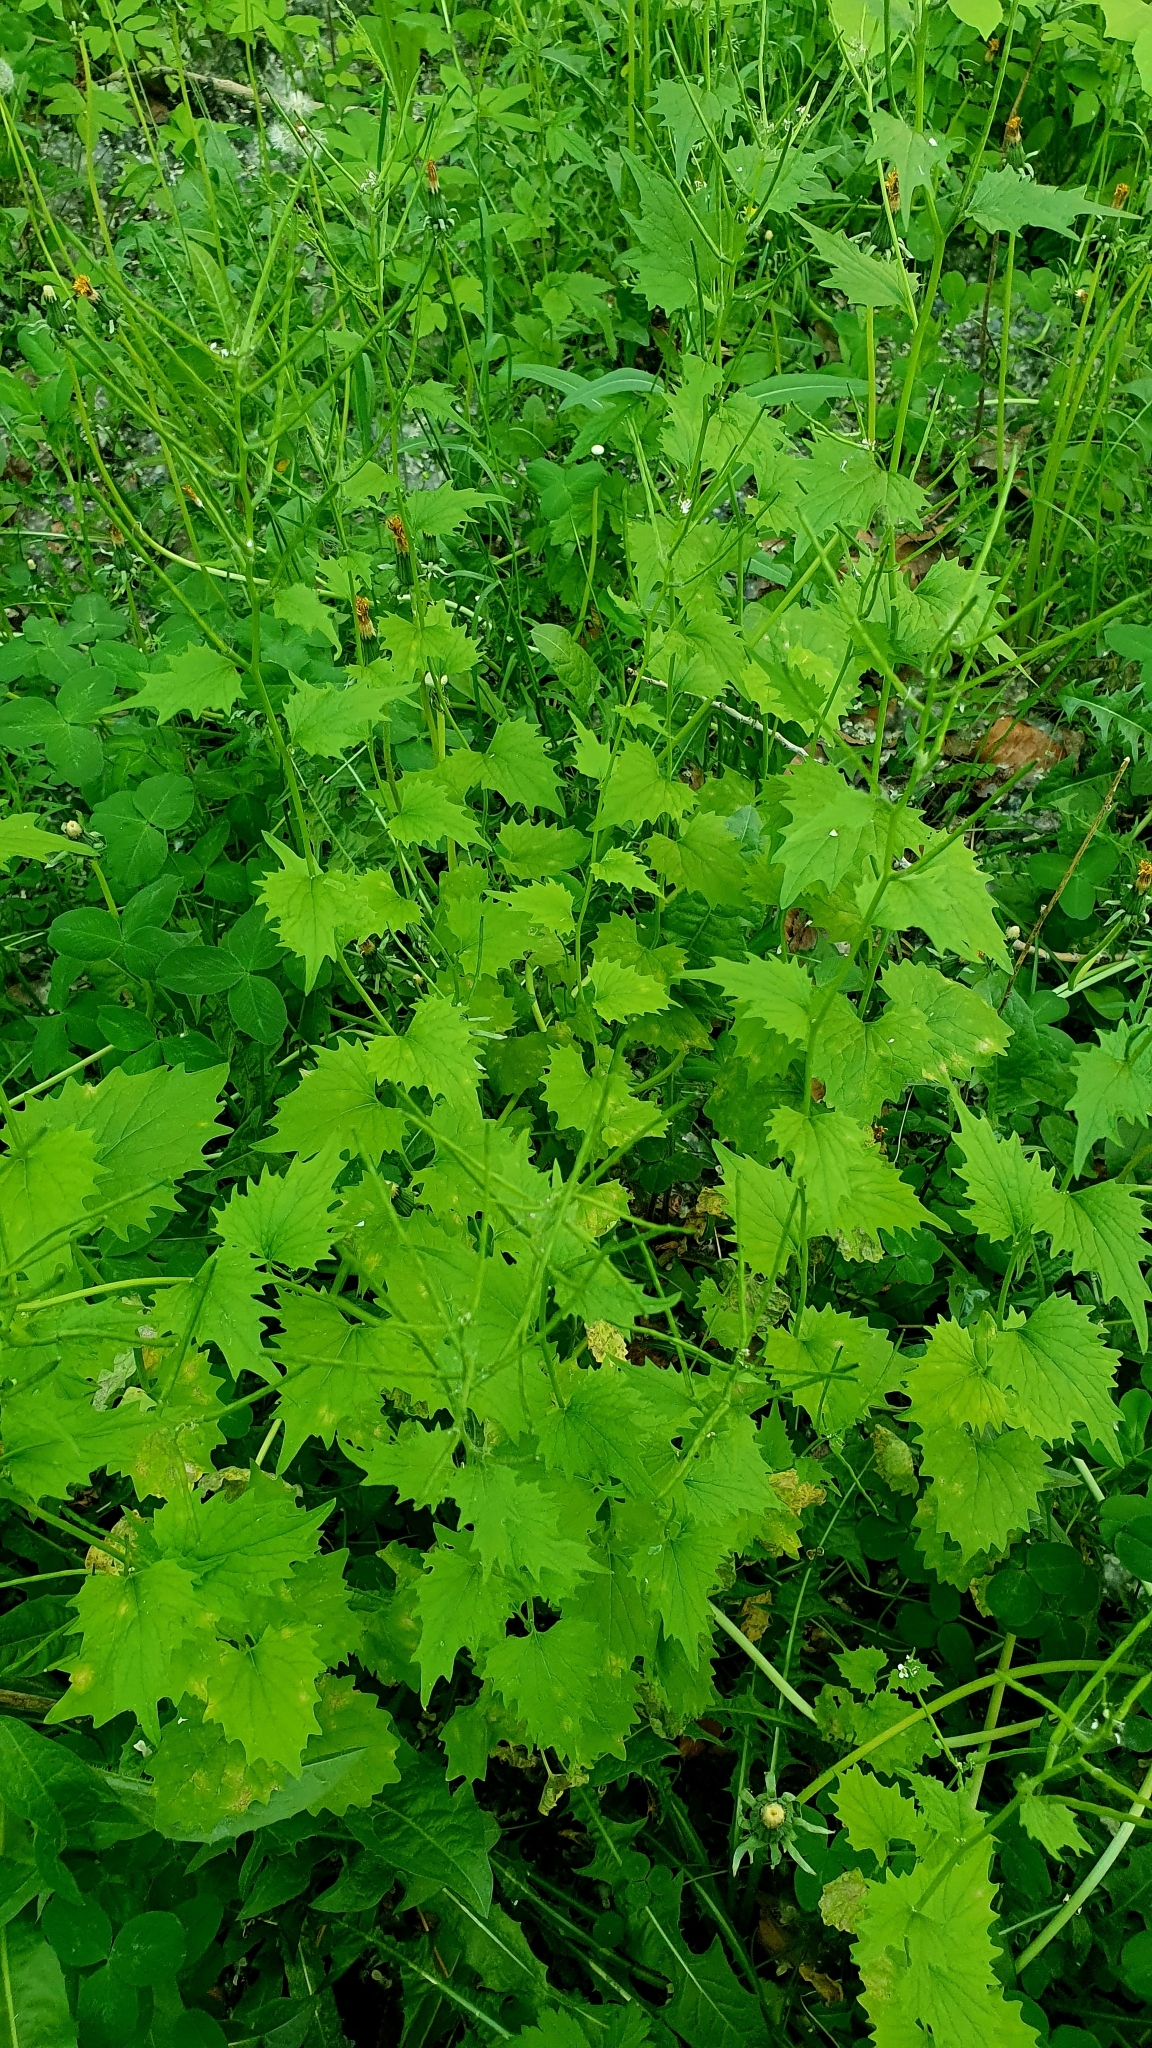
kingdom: Plantae
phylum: Tracheophyta
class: Magnoliopsida
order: Brassicales
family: Brassicaceae
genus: Alliaria
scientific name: Alliaria petiolata
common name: Garlic mustard
